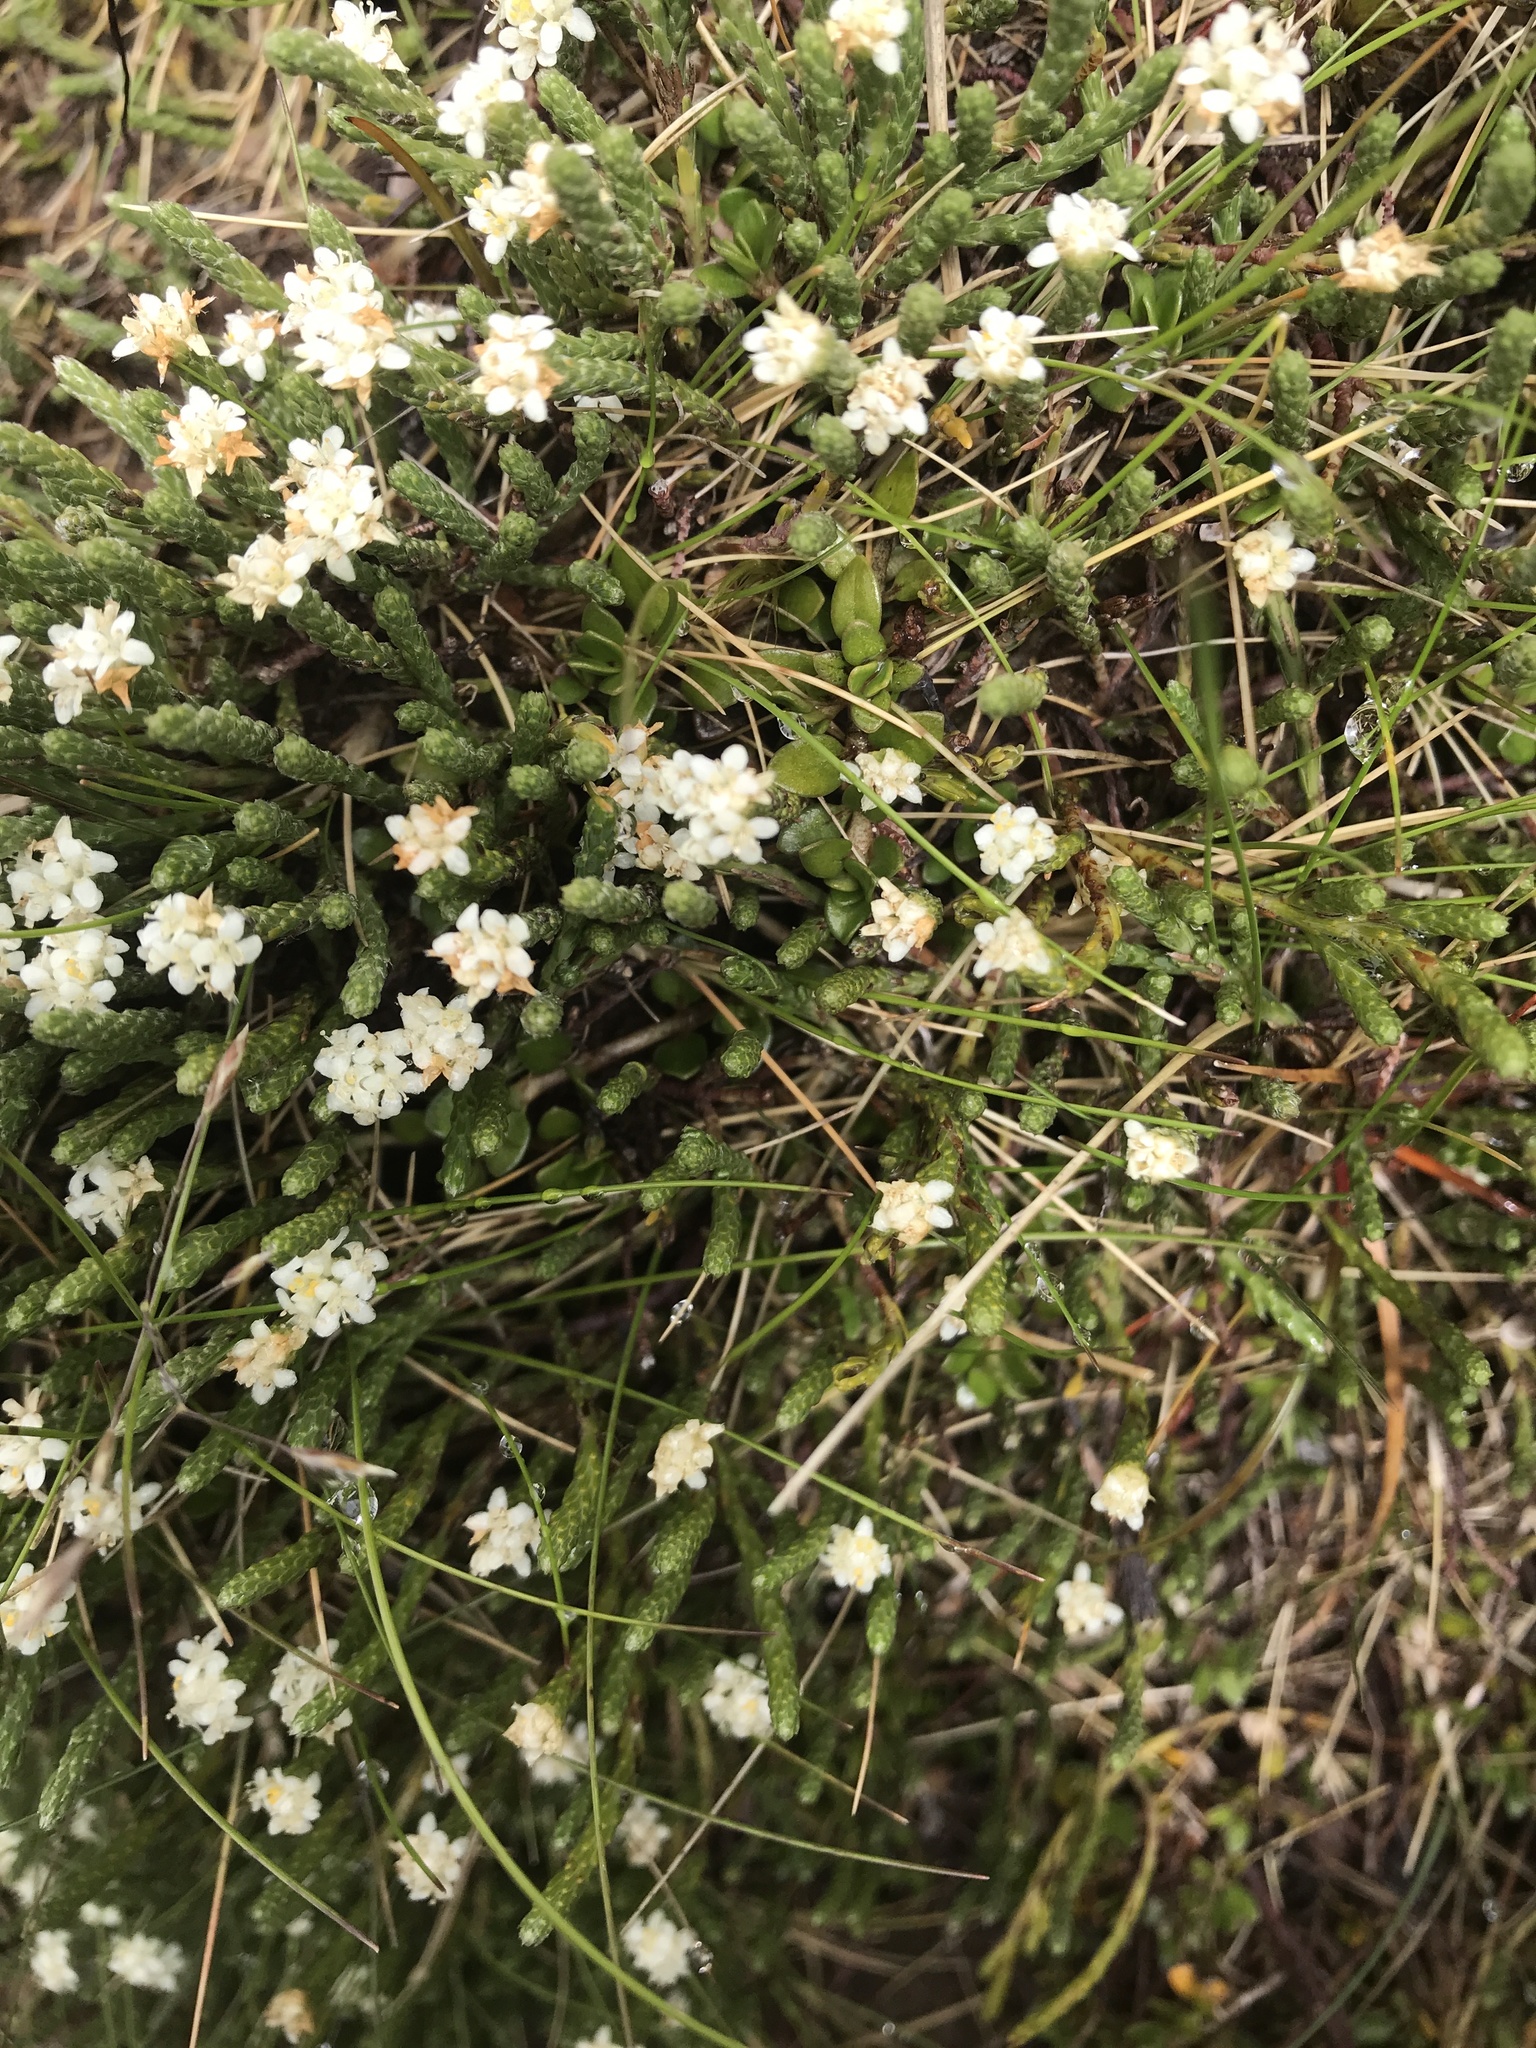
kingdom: Plantae
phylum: Tracheophyta
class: Magnoliopsida
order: Malvales
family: Thymelaeaceae
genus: Kelleria
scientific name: Kelleria dieffenbachii
